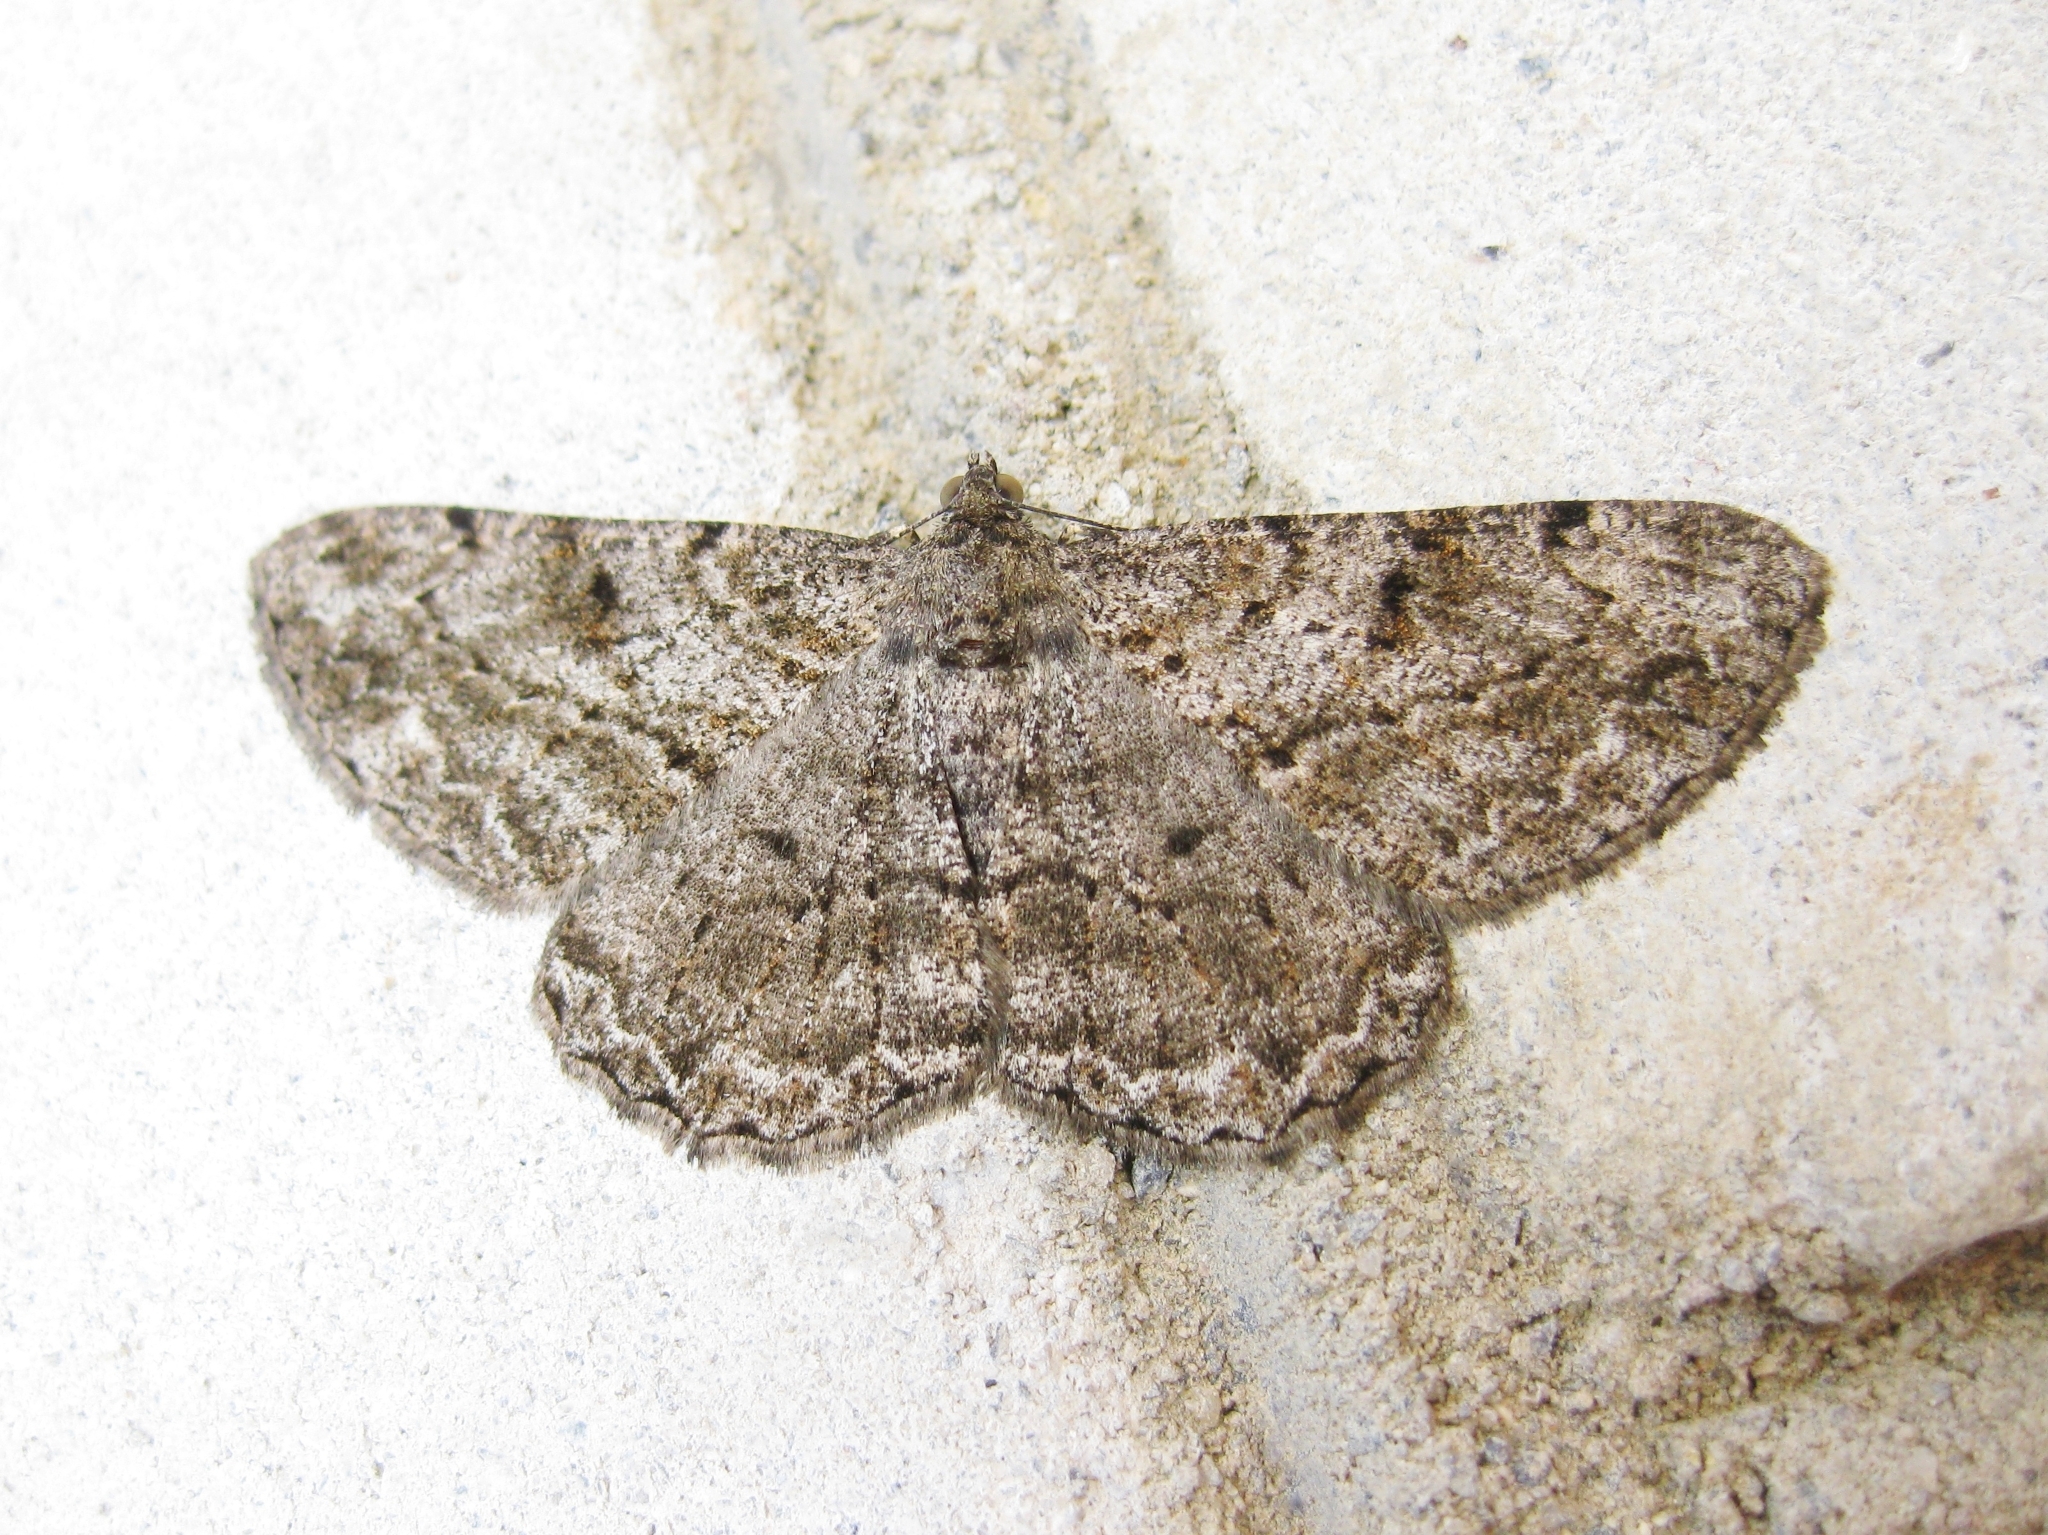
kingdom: Animalia
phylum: Arthropoda
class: Insecta
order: Lepidoptera
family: Geometridae
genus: Peribatodes
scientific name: Peribatodes rhomboidaria
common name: Willow beauty
